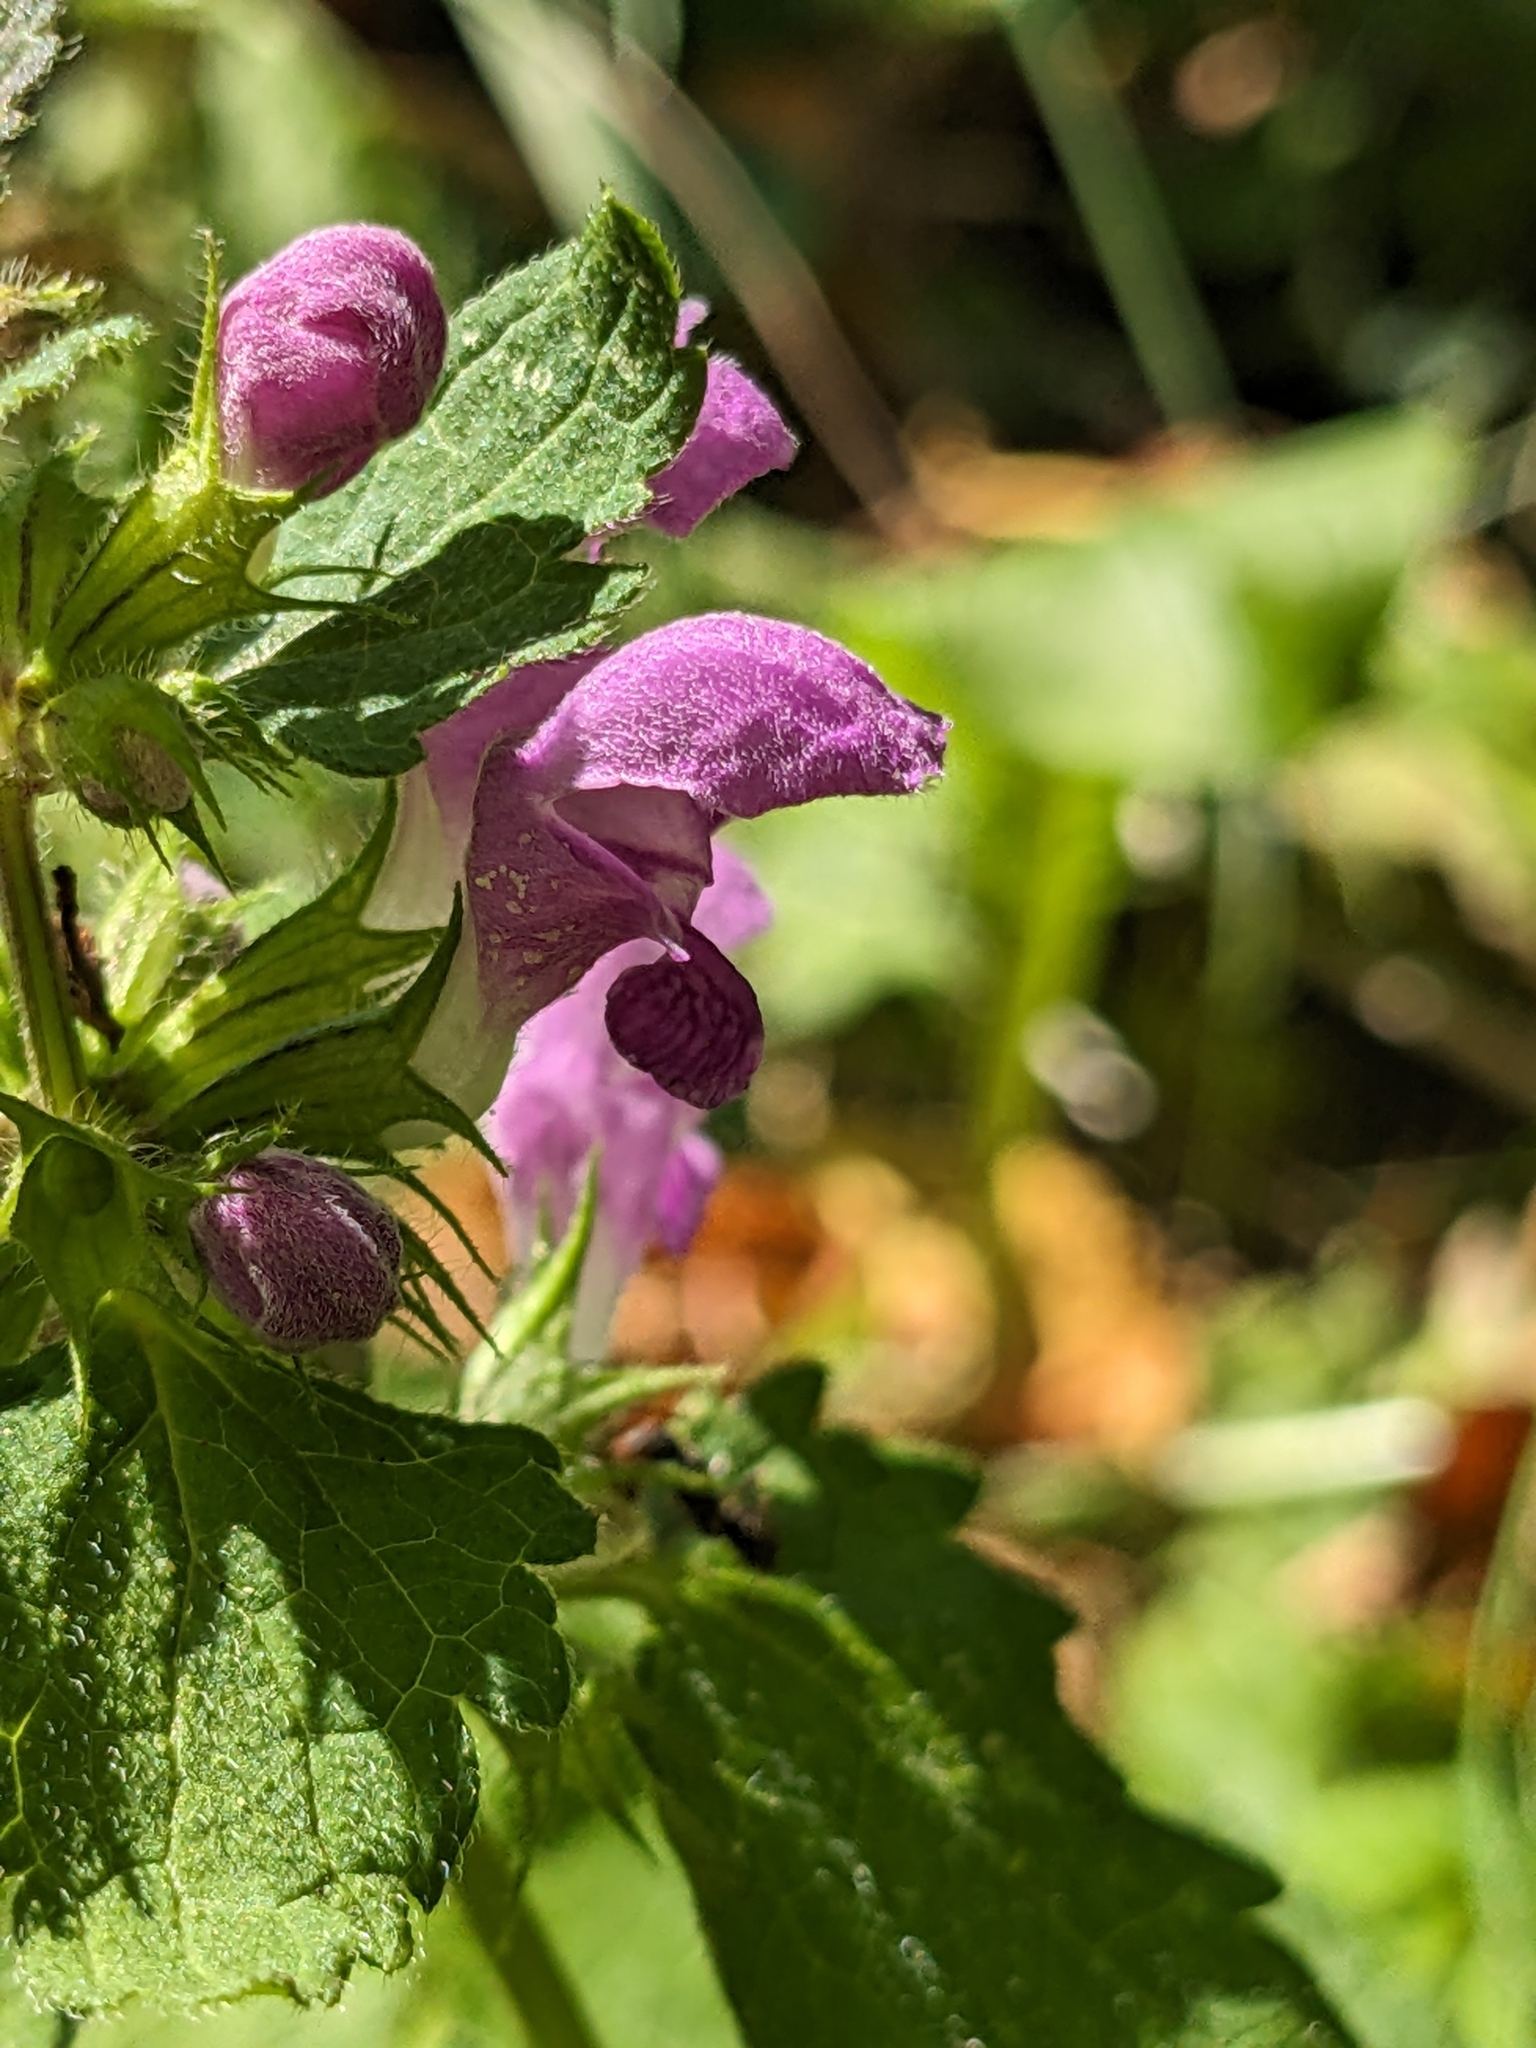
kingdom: Plantae
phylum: Tracheophyta
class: Magnoliopsida
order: Lamiales
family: Lamiaceae
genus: Lamium
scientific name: Lamium maculatum
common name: Spotted dead-nettle
